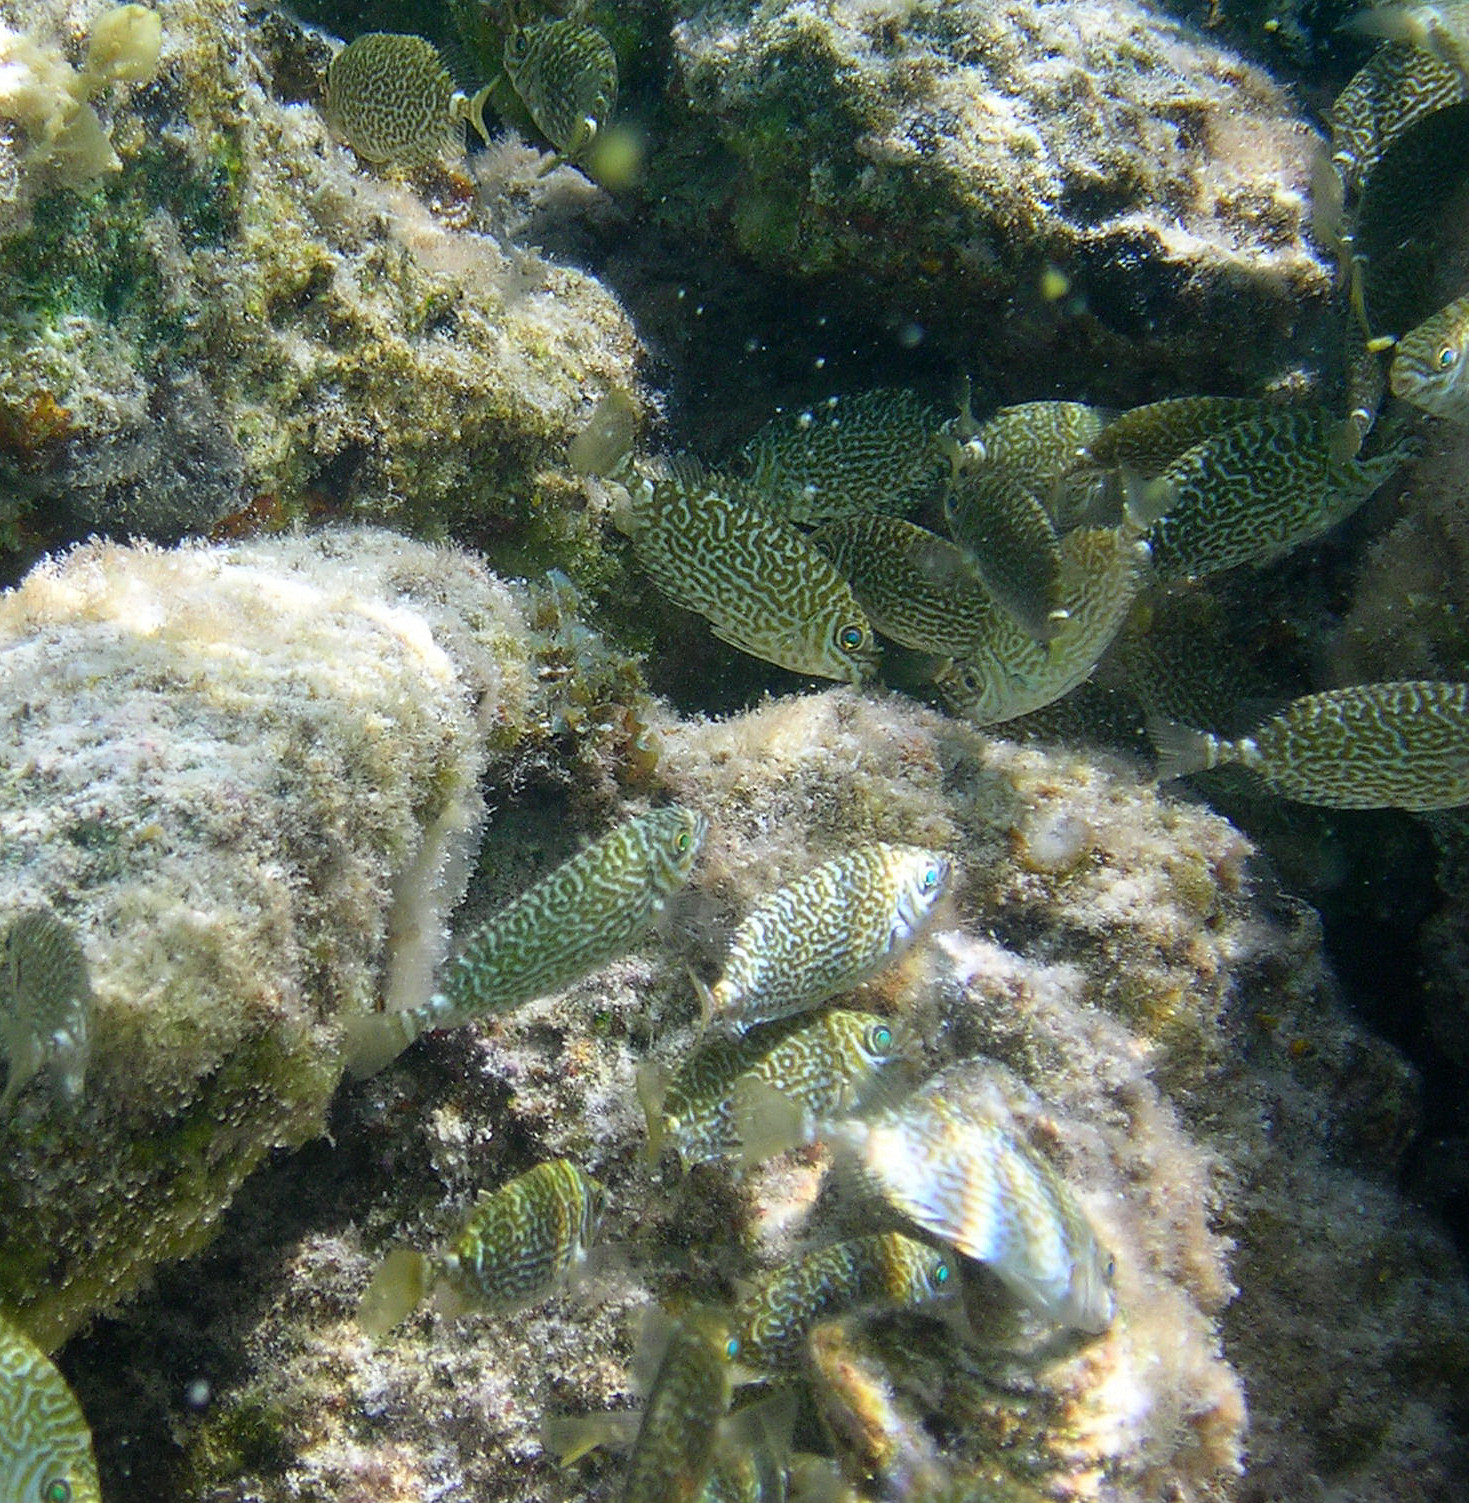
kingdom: Animalia
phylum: Chordata
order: Perciformes
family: Siganidae
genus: Siganus
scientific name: Siganus spinus
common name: Scribbled rabbitfish
